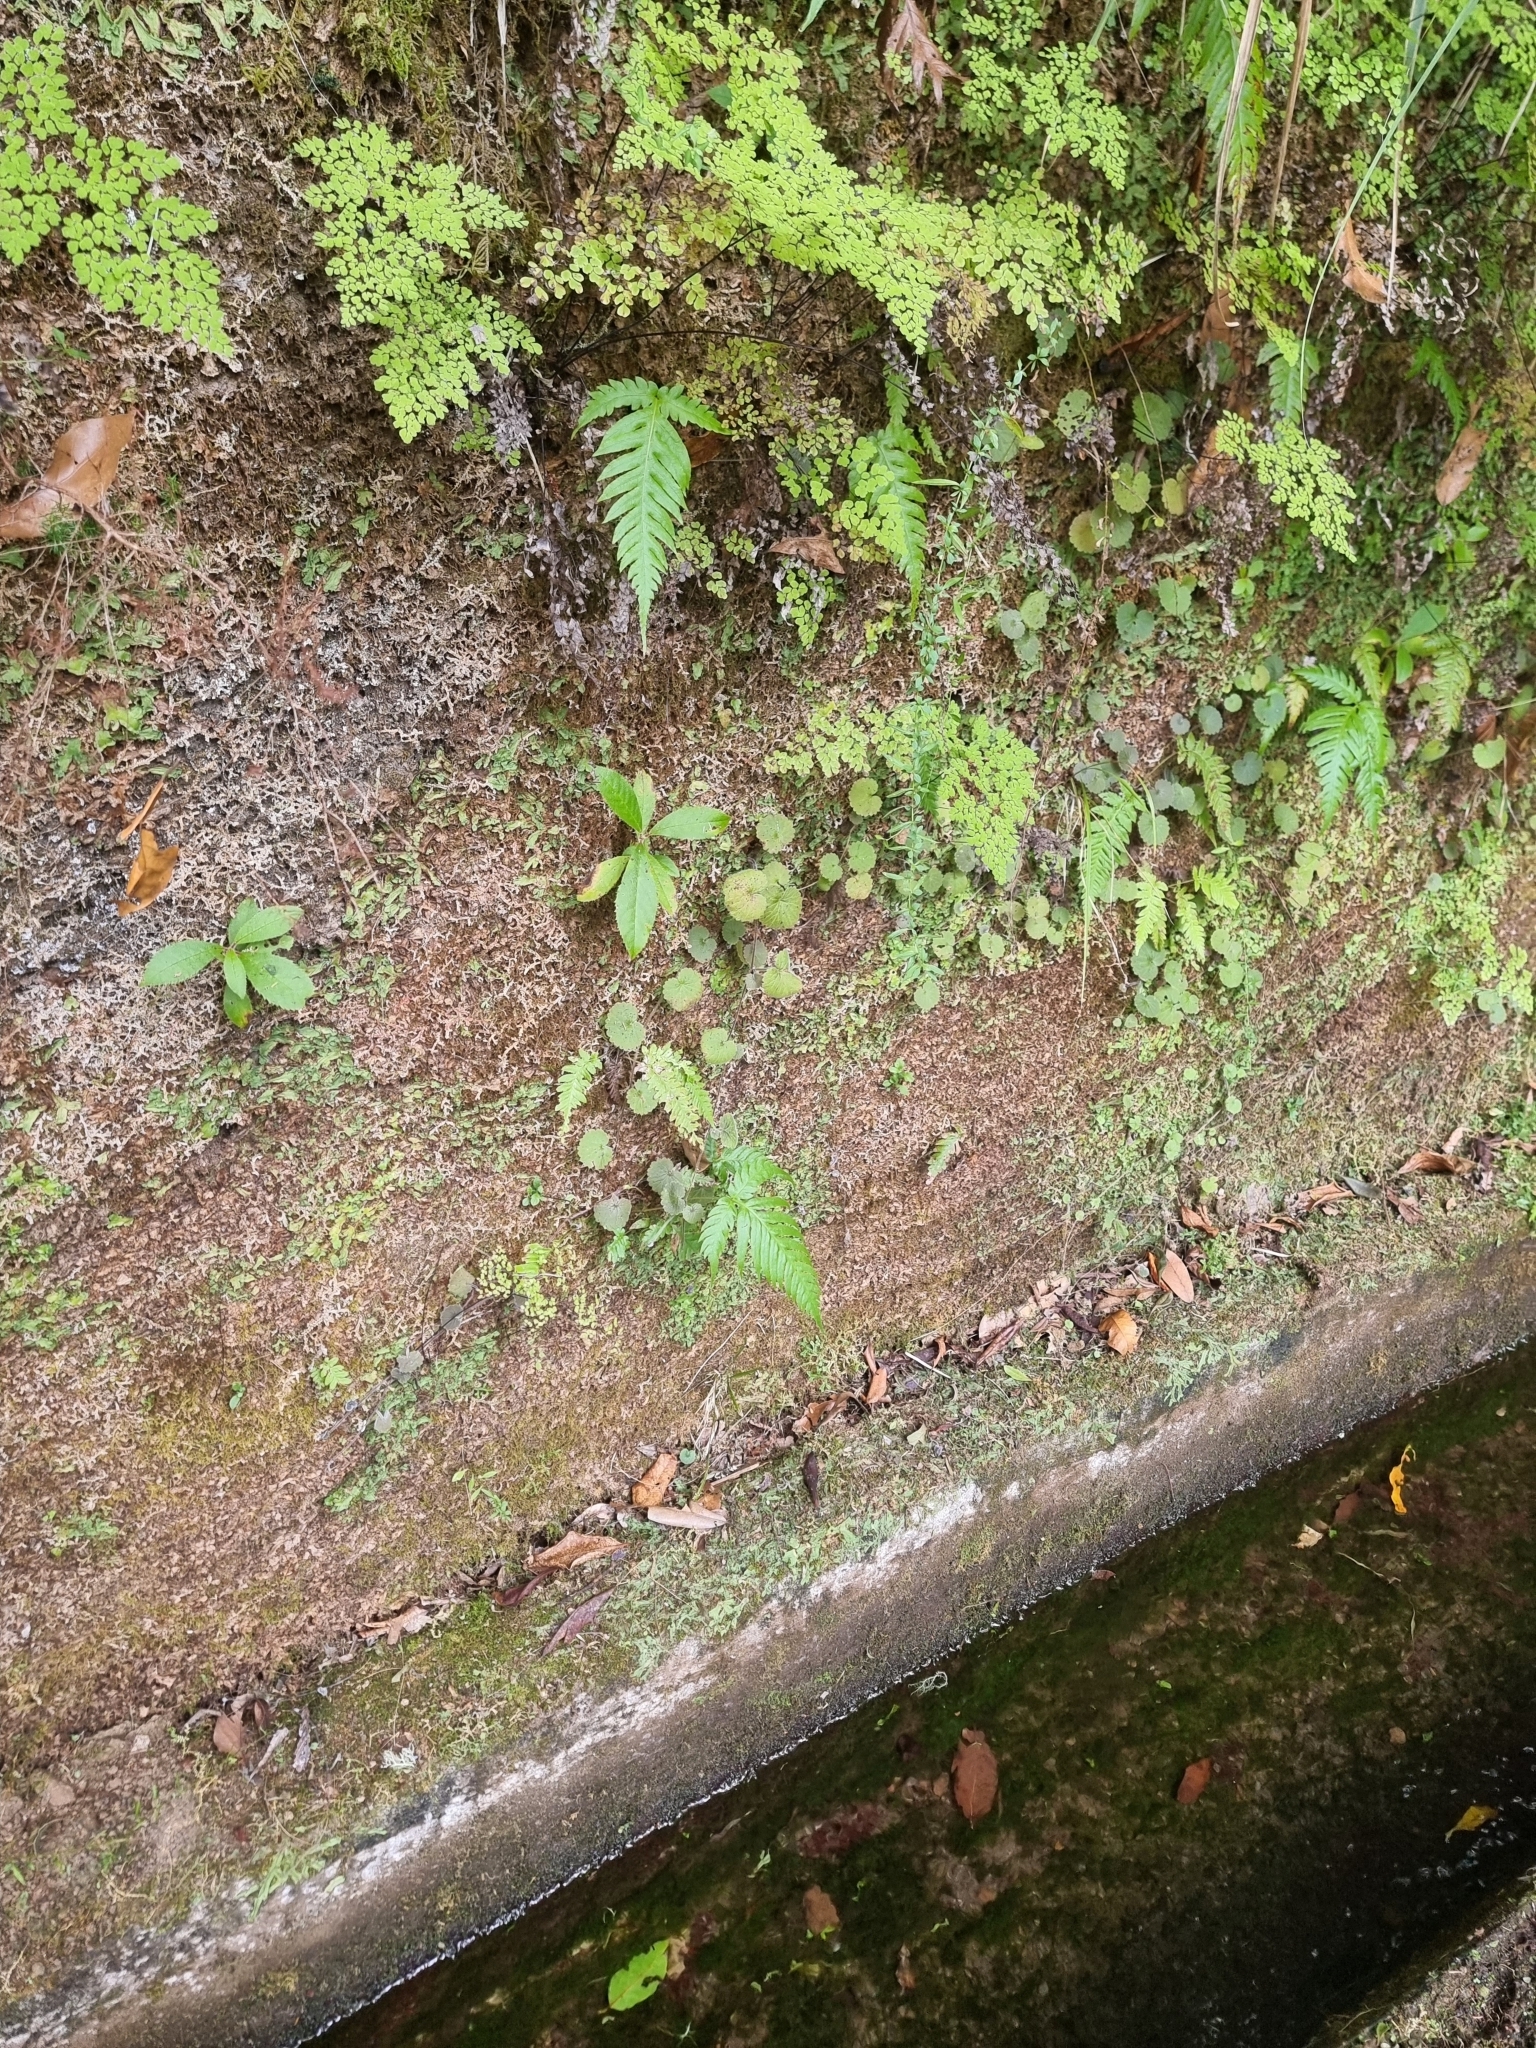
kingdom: Plantae
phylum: Tracheophyta
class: Magnoliopsida
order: Lamiales
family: Plantaginaceae
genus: Sibthorpia
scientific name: Sibthorpia peregrina
